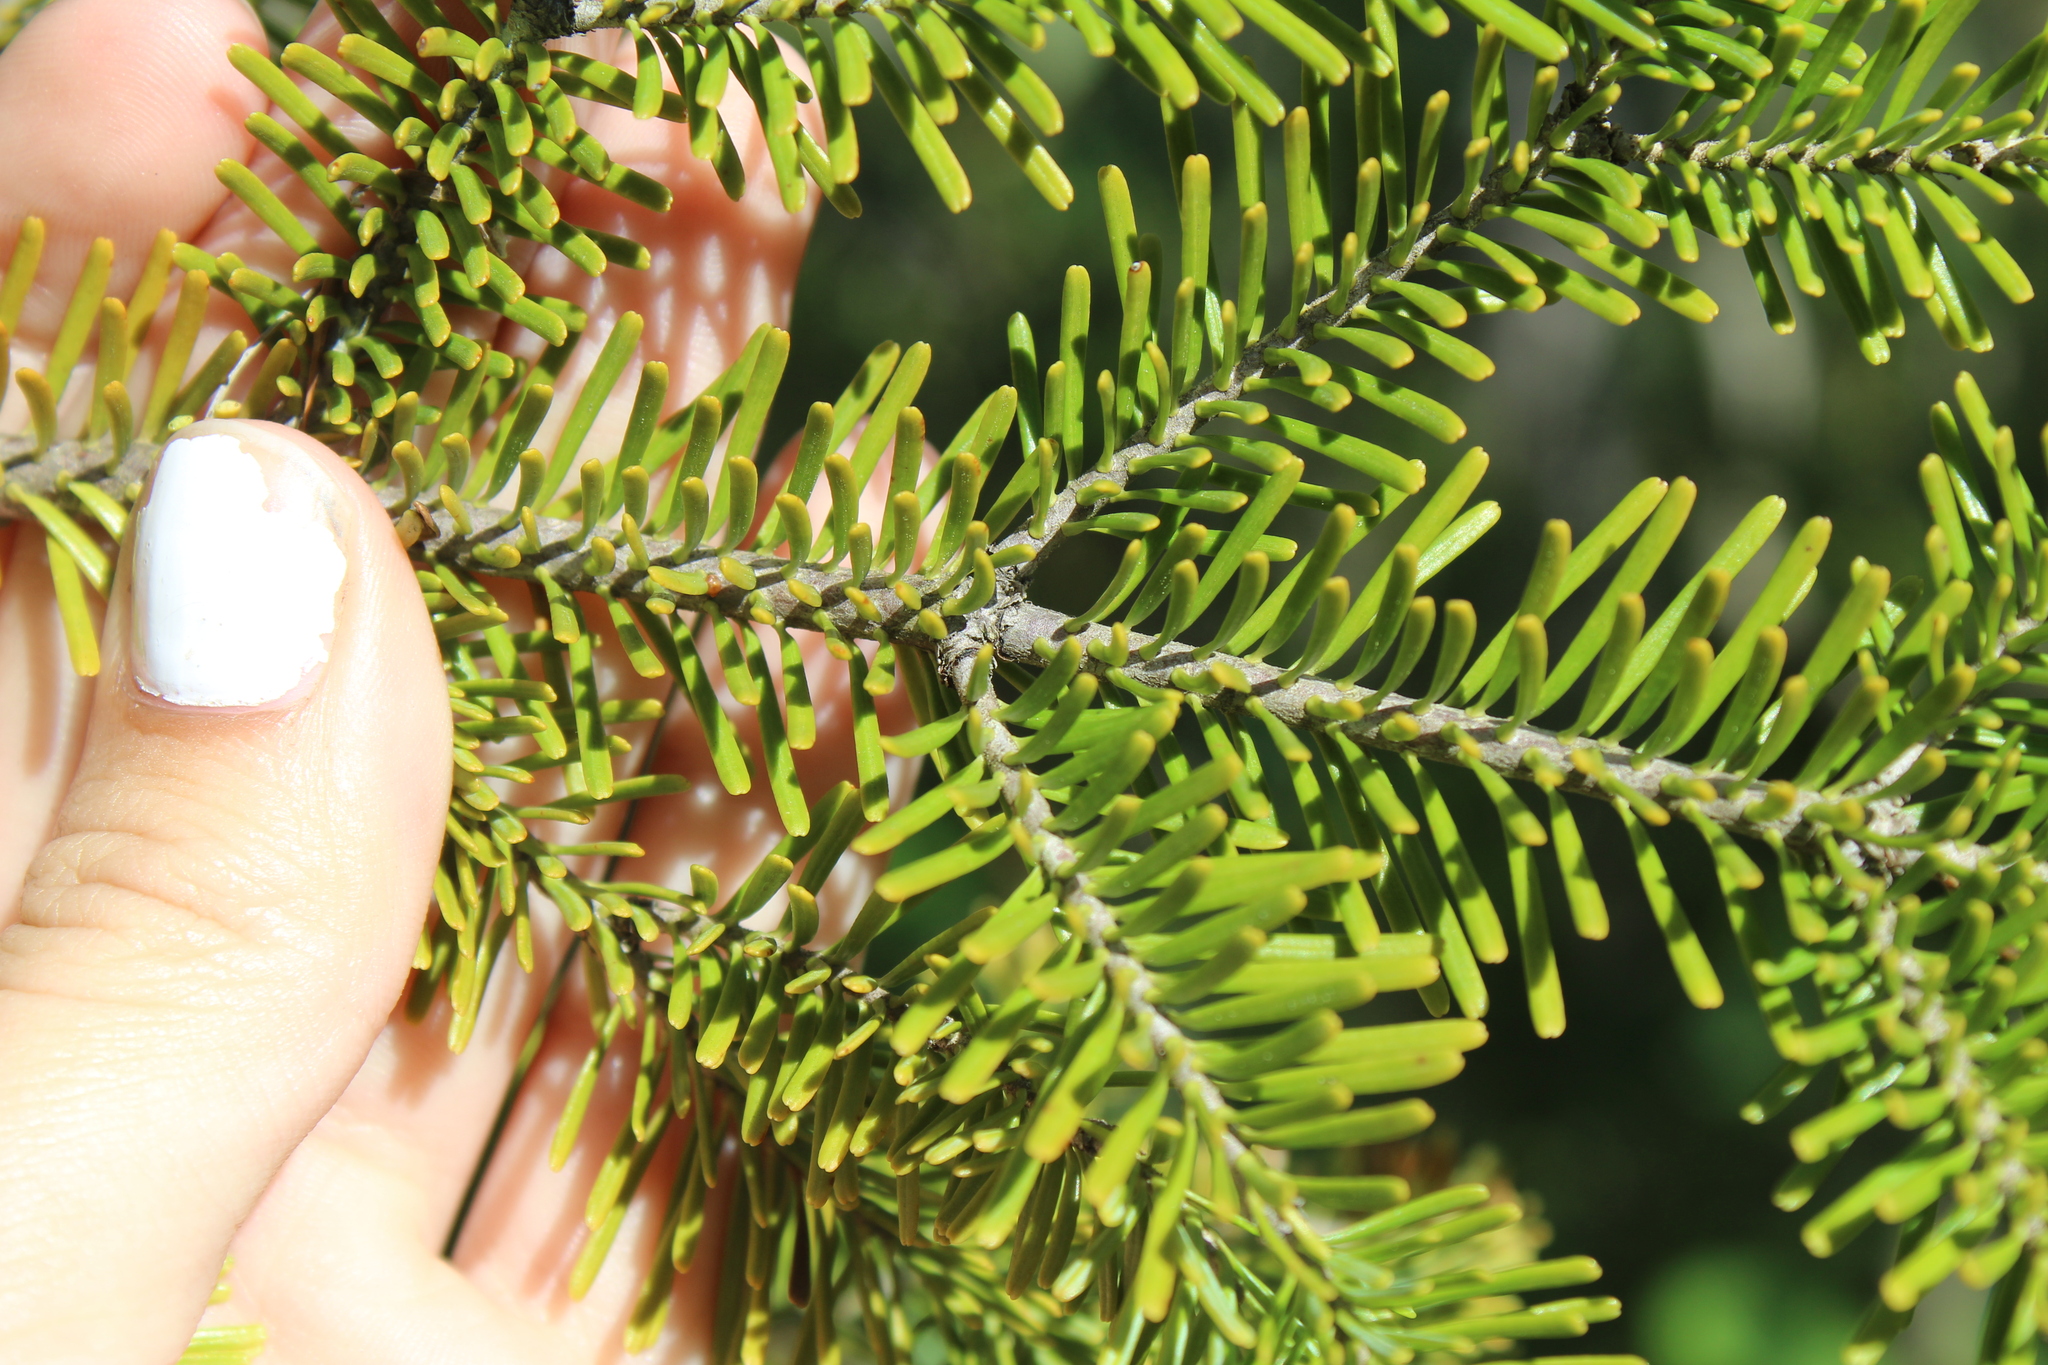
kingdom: Plantae
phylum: Tracheophyta
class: Pinopsida
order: Pinales
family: Pinaceae
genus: Abies
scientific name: Abies balsamea
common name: Balsam fir
